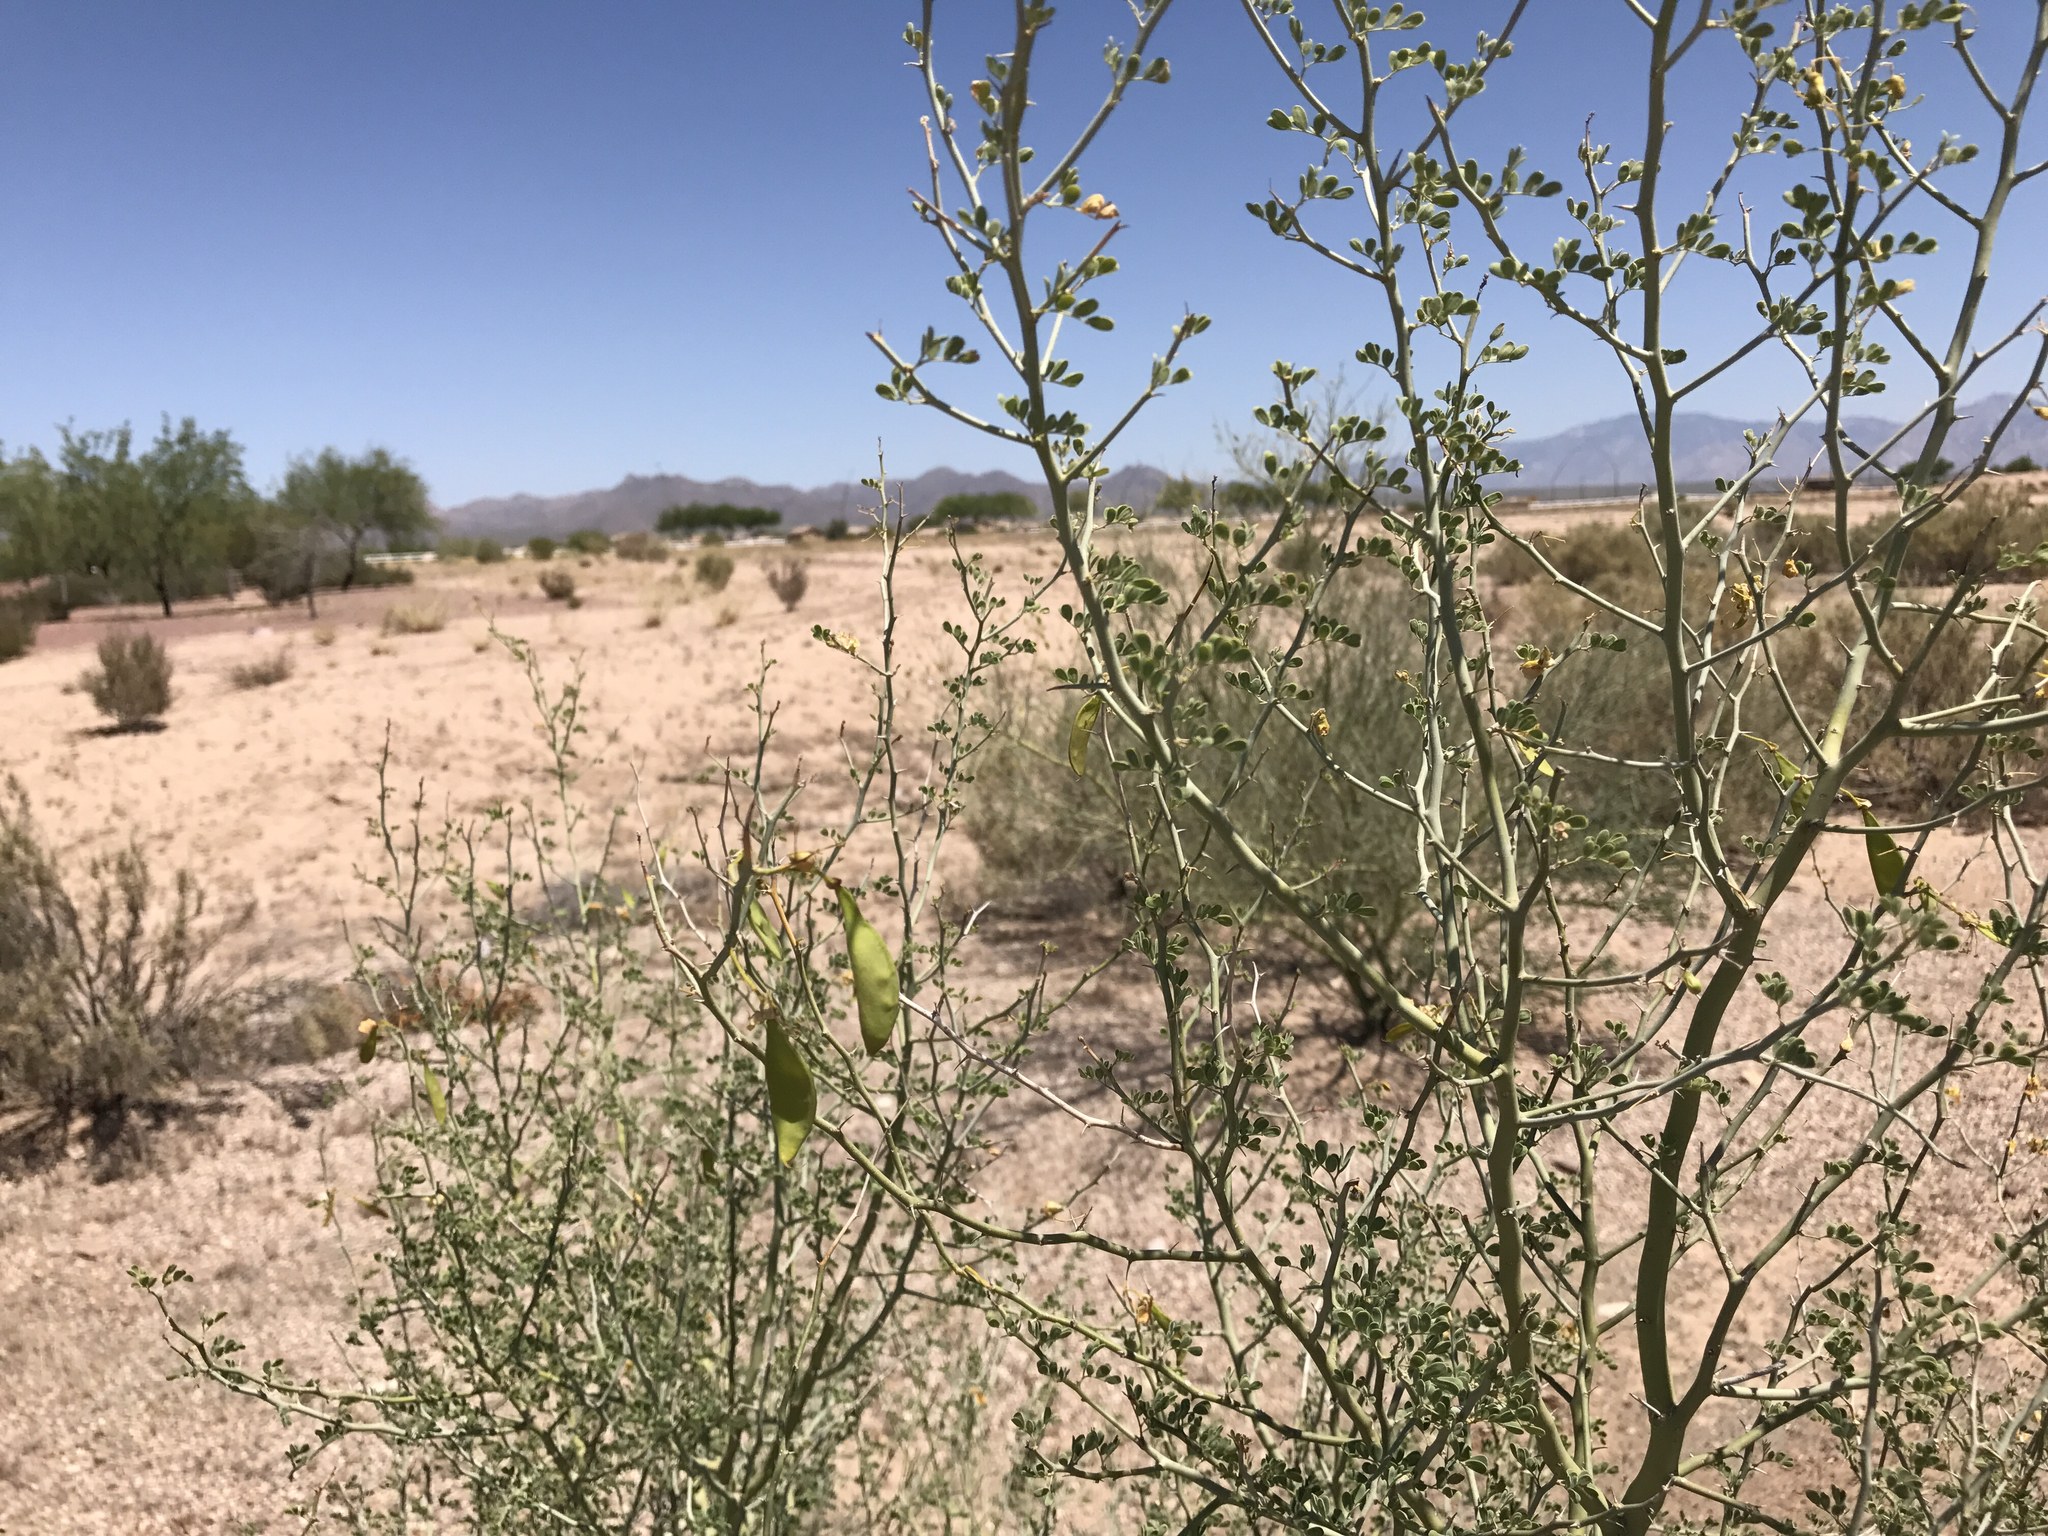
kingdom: Plantae
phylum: Tracheophyta
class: Magnoliopsida
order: Fabales
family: Fabaceae
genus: Parkinsonia
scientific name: Parkinsonia florida
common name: Blue paloverde
